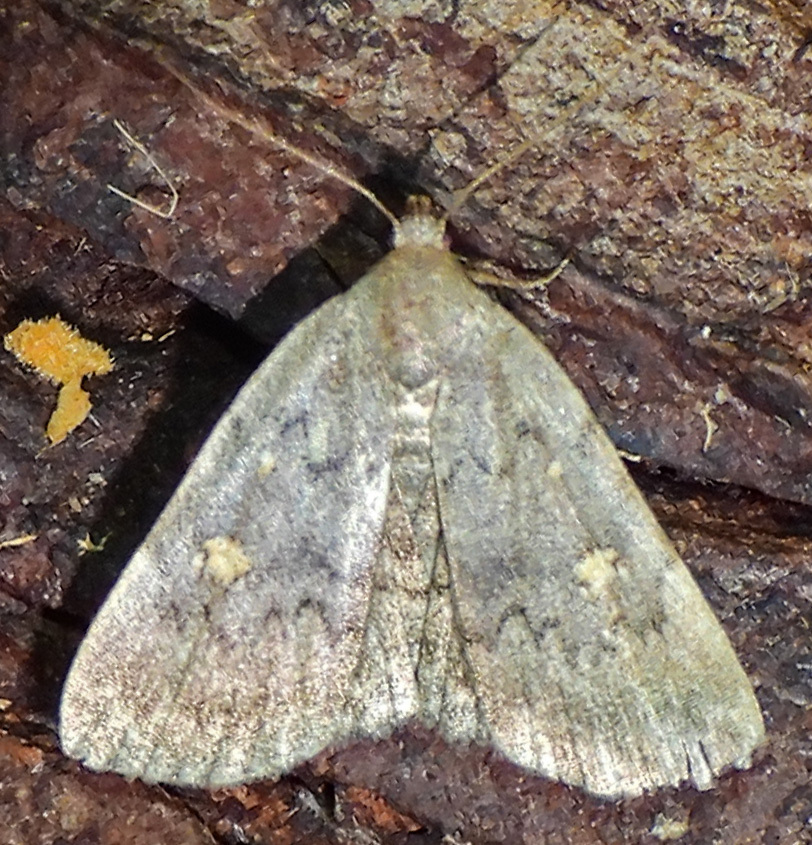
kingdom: Animalia
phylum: Arthropoda
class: Insecta
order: Lepidoptera
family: Erebidae
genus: Idia
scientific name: Idia aemula
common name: Common idia moth
